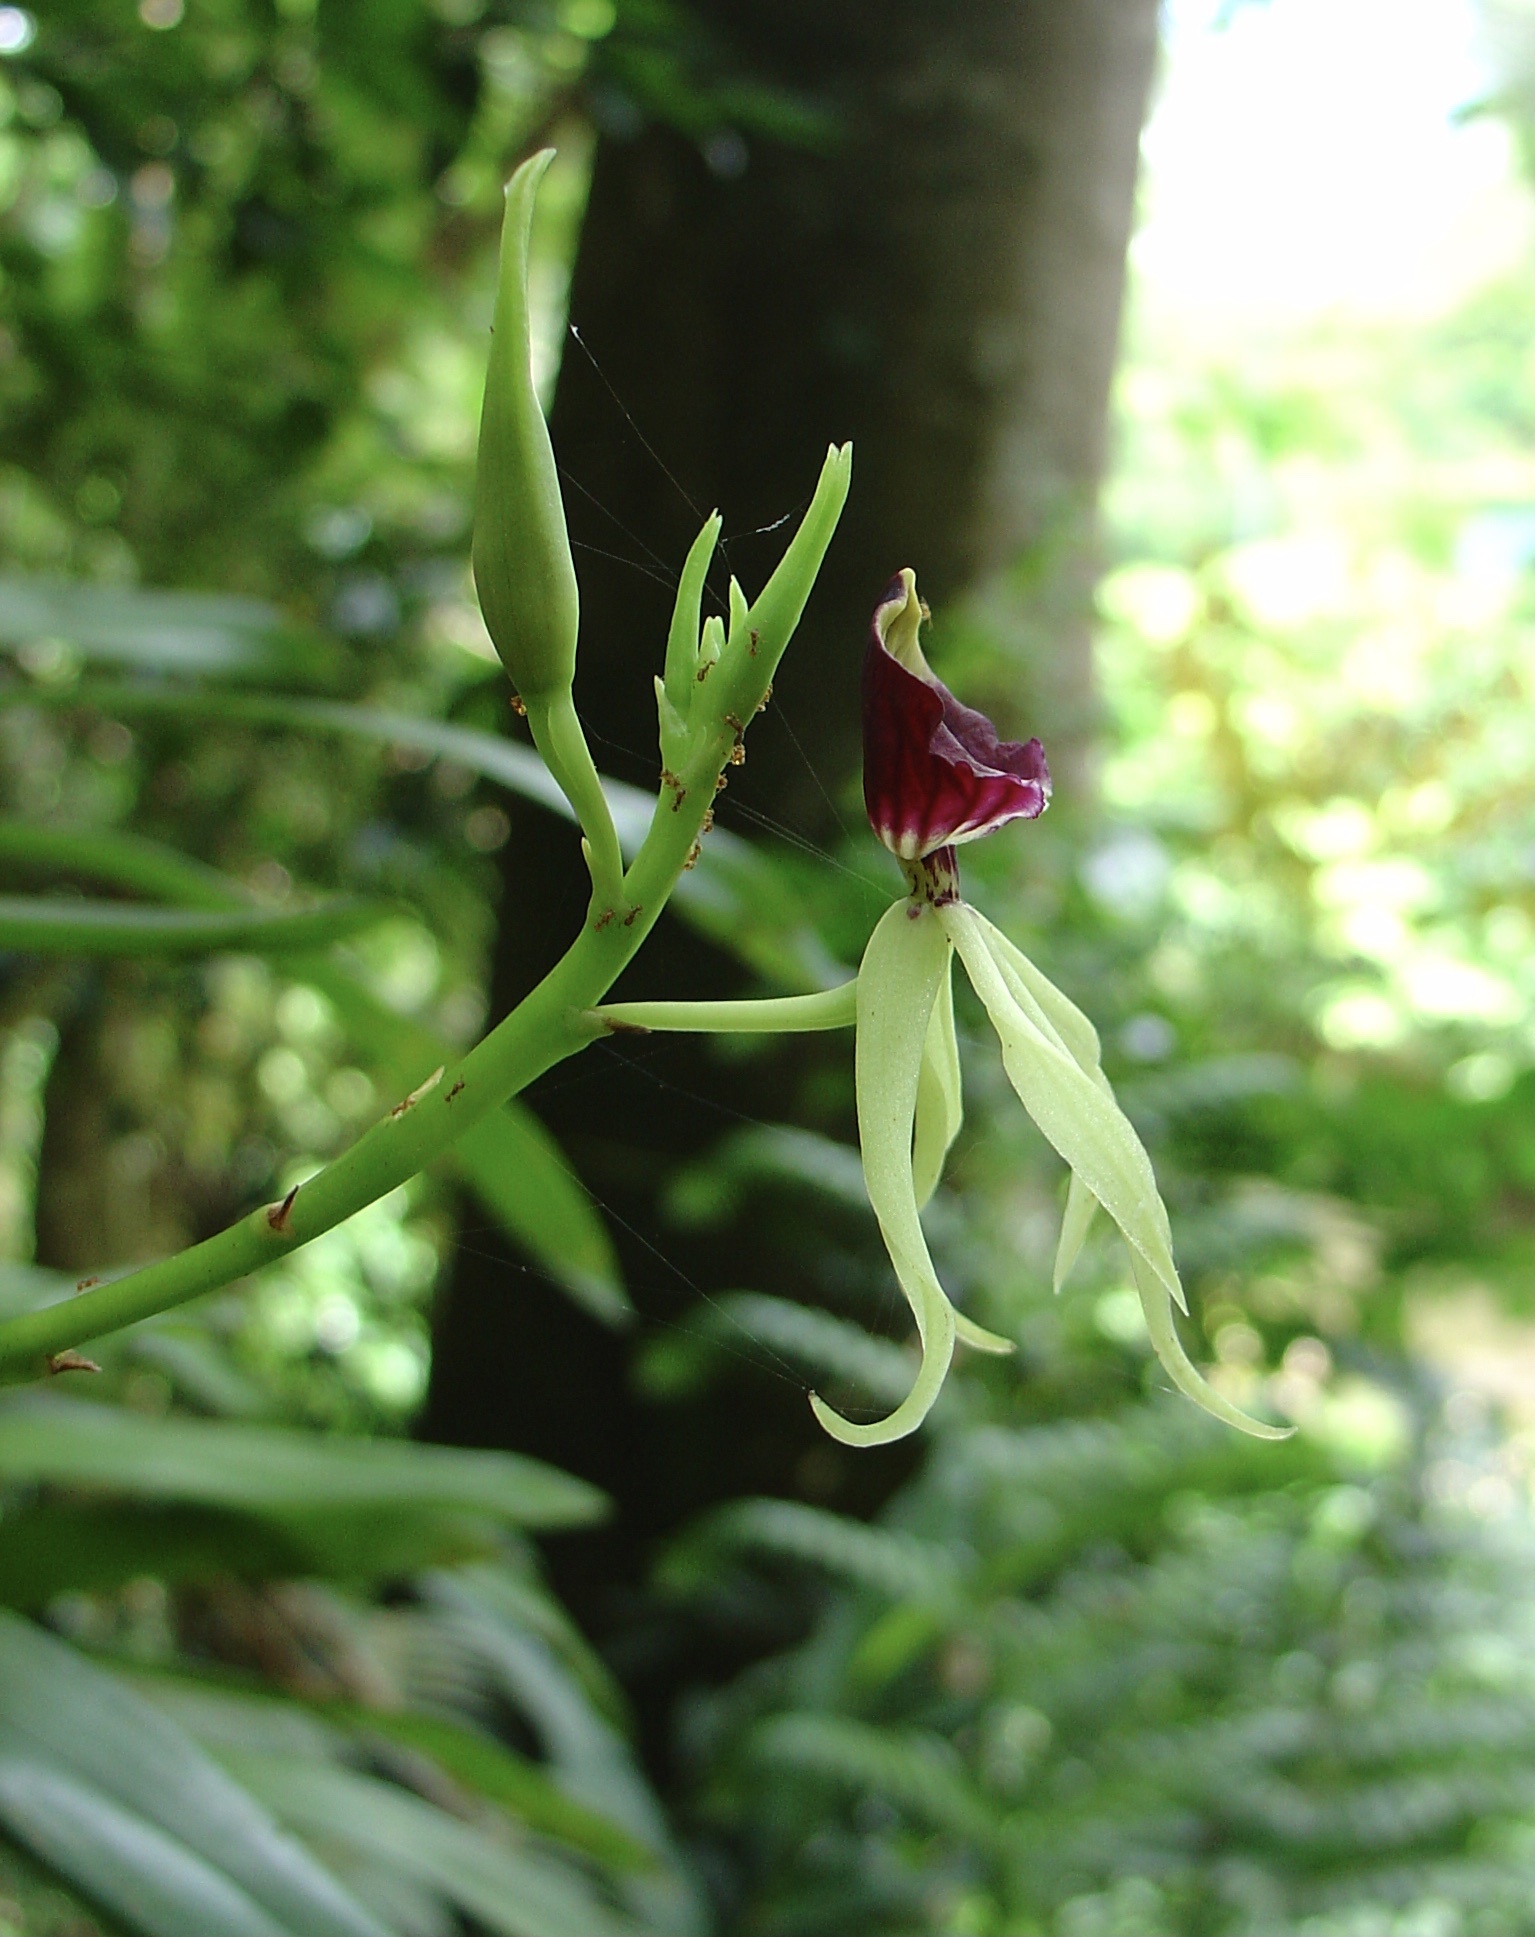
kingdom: Plantae
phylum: Tracheophyta
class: Liliopsida
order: Asparagales
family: Orchidaceae
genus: Prosthechea
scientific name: Prosthechea cochleata
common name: Clamshell orchid
